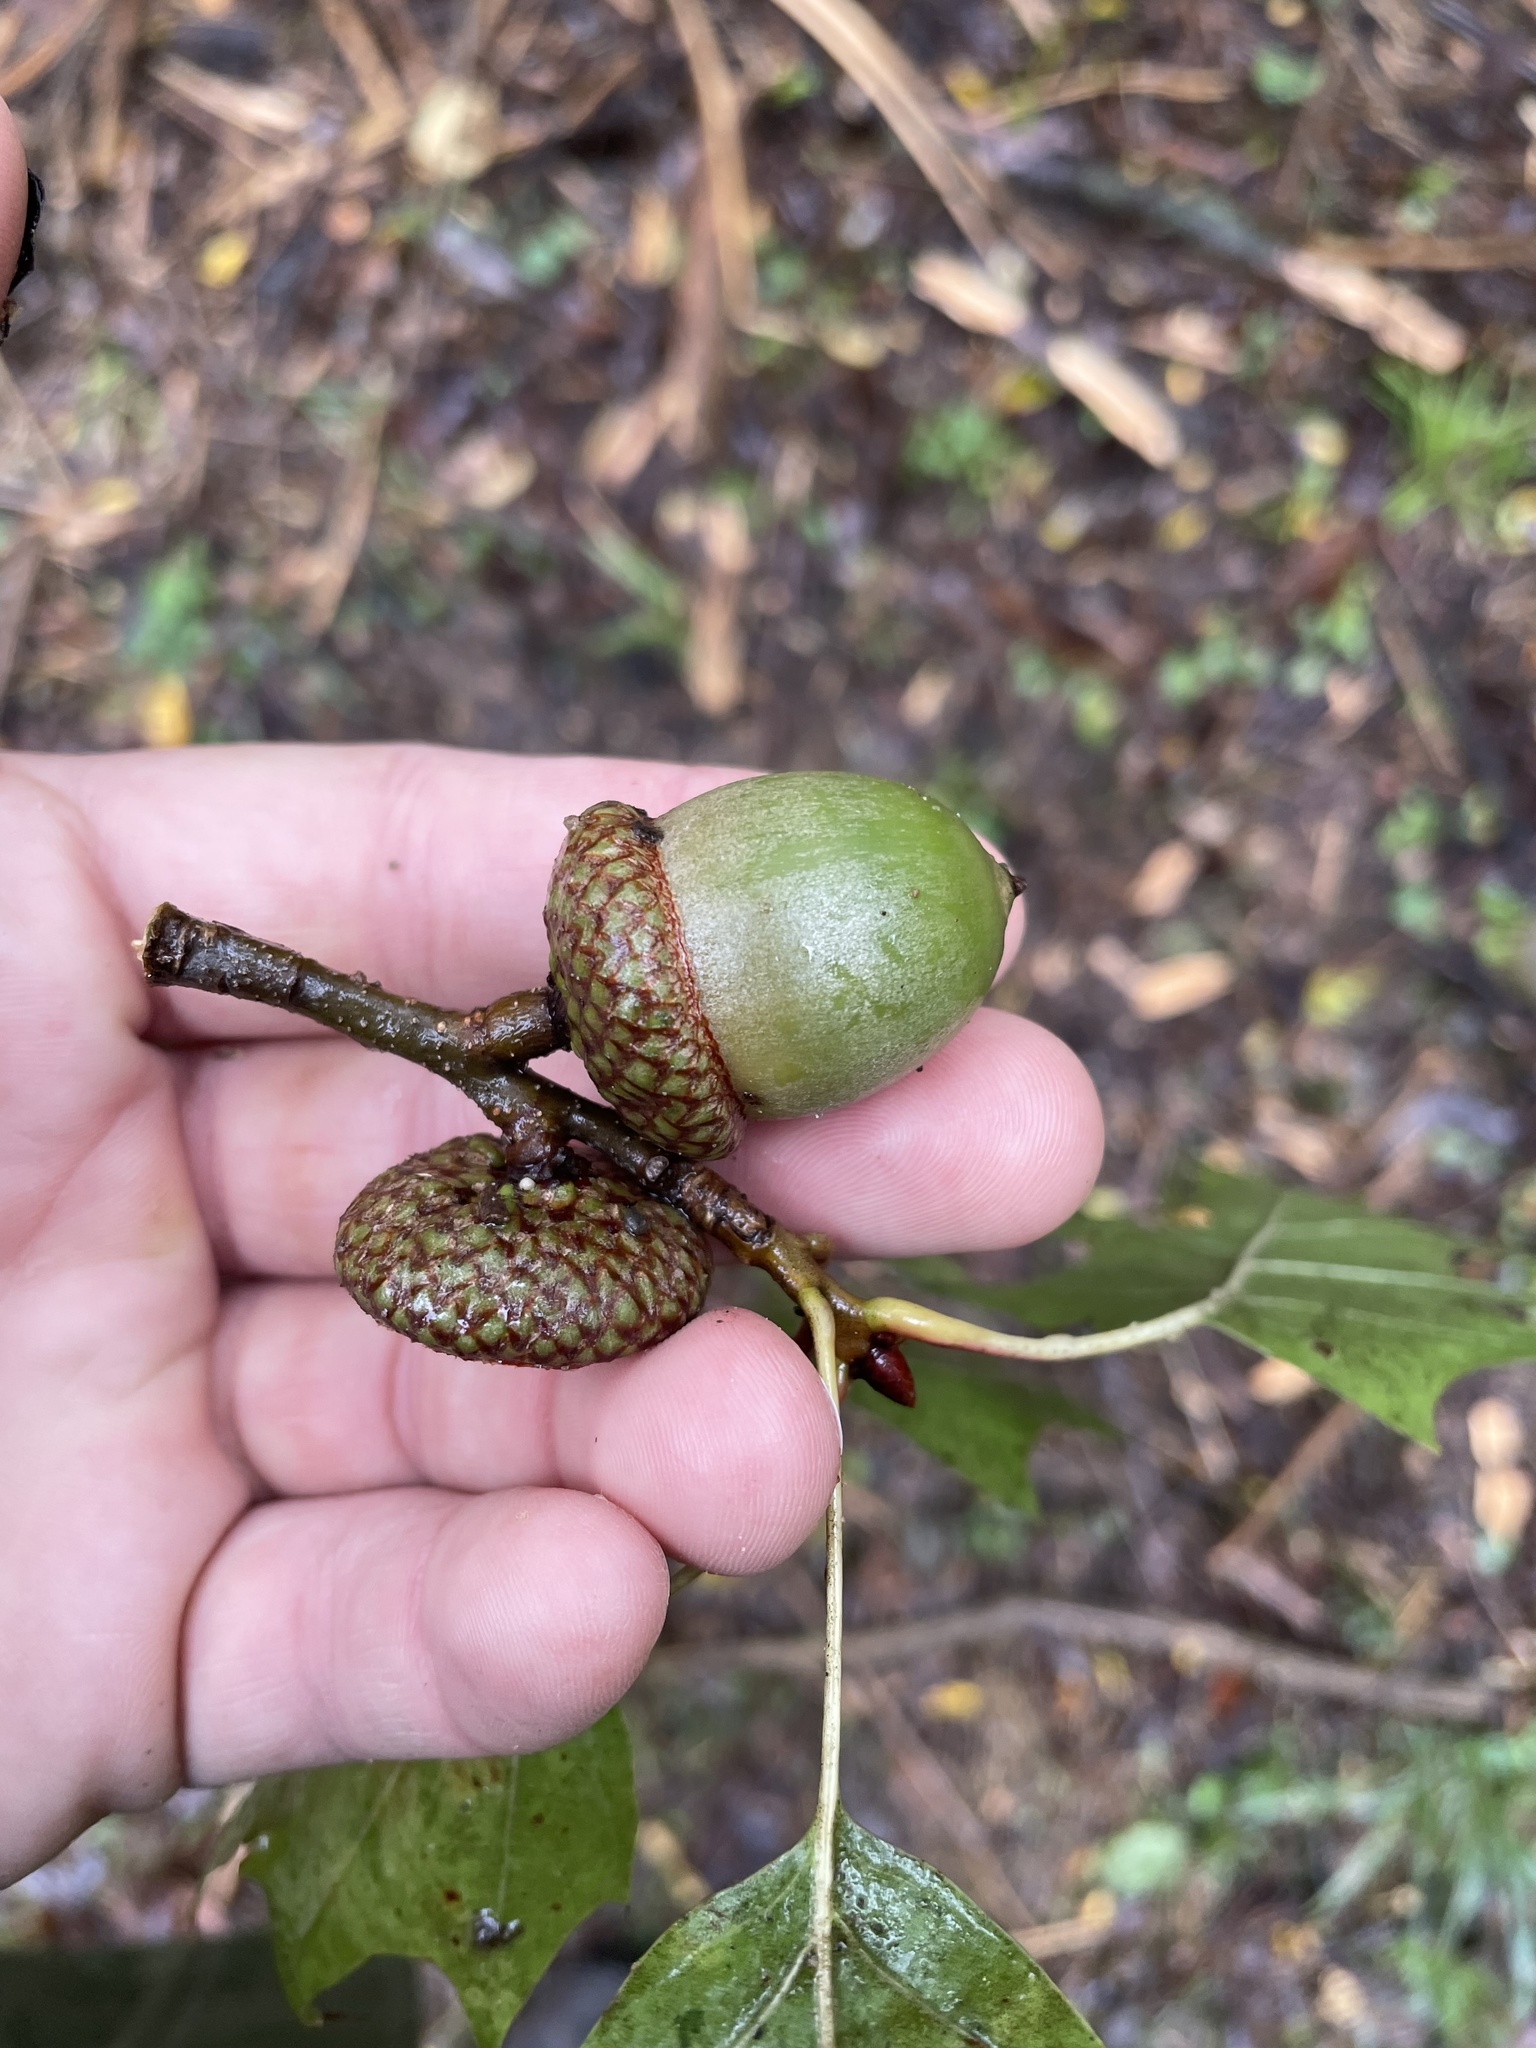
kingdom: Plantae
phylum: Tracheophyta
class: Magnoliopsida
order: Fagales
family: Fagaceae
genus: Quercus
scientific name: Quercus rubra
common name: Red oak
